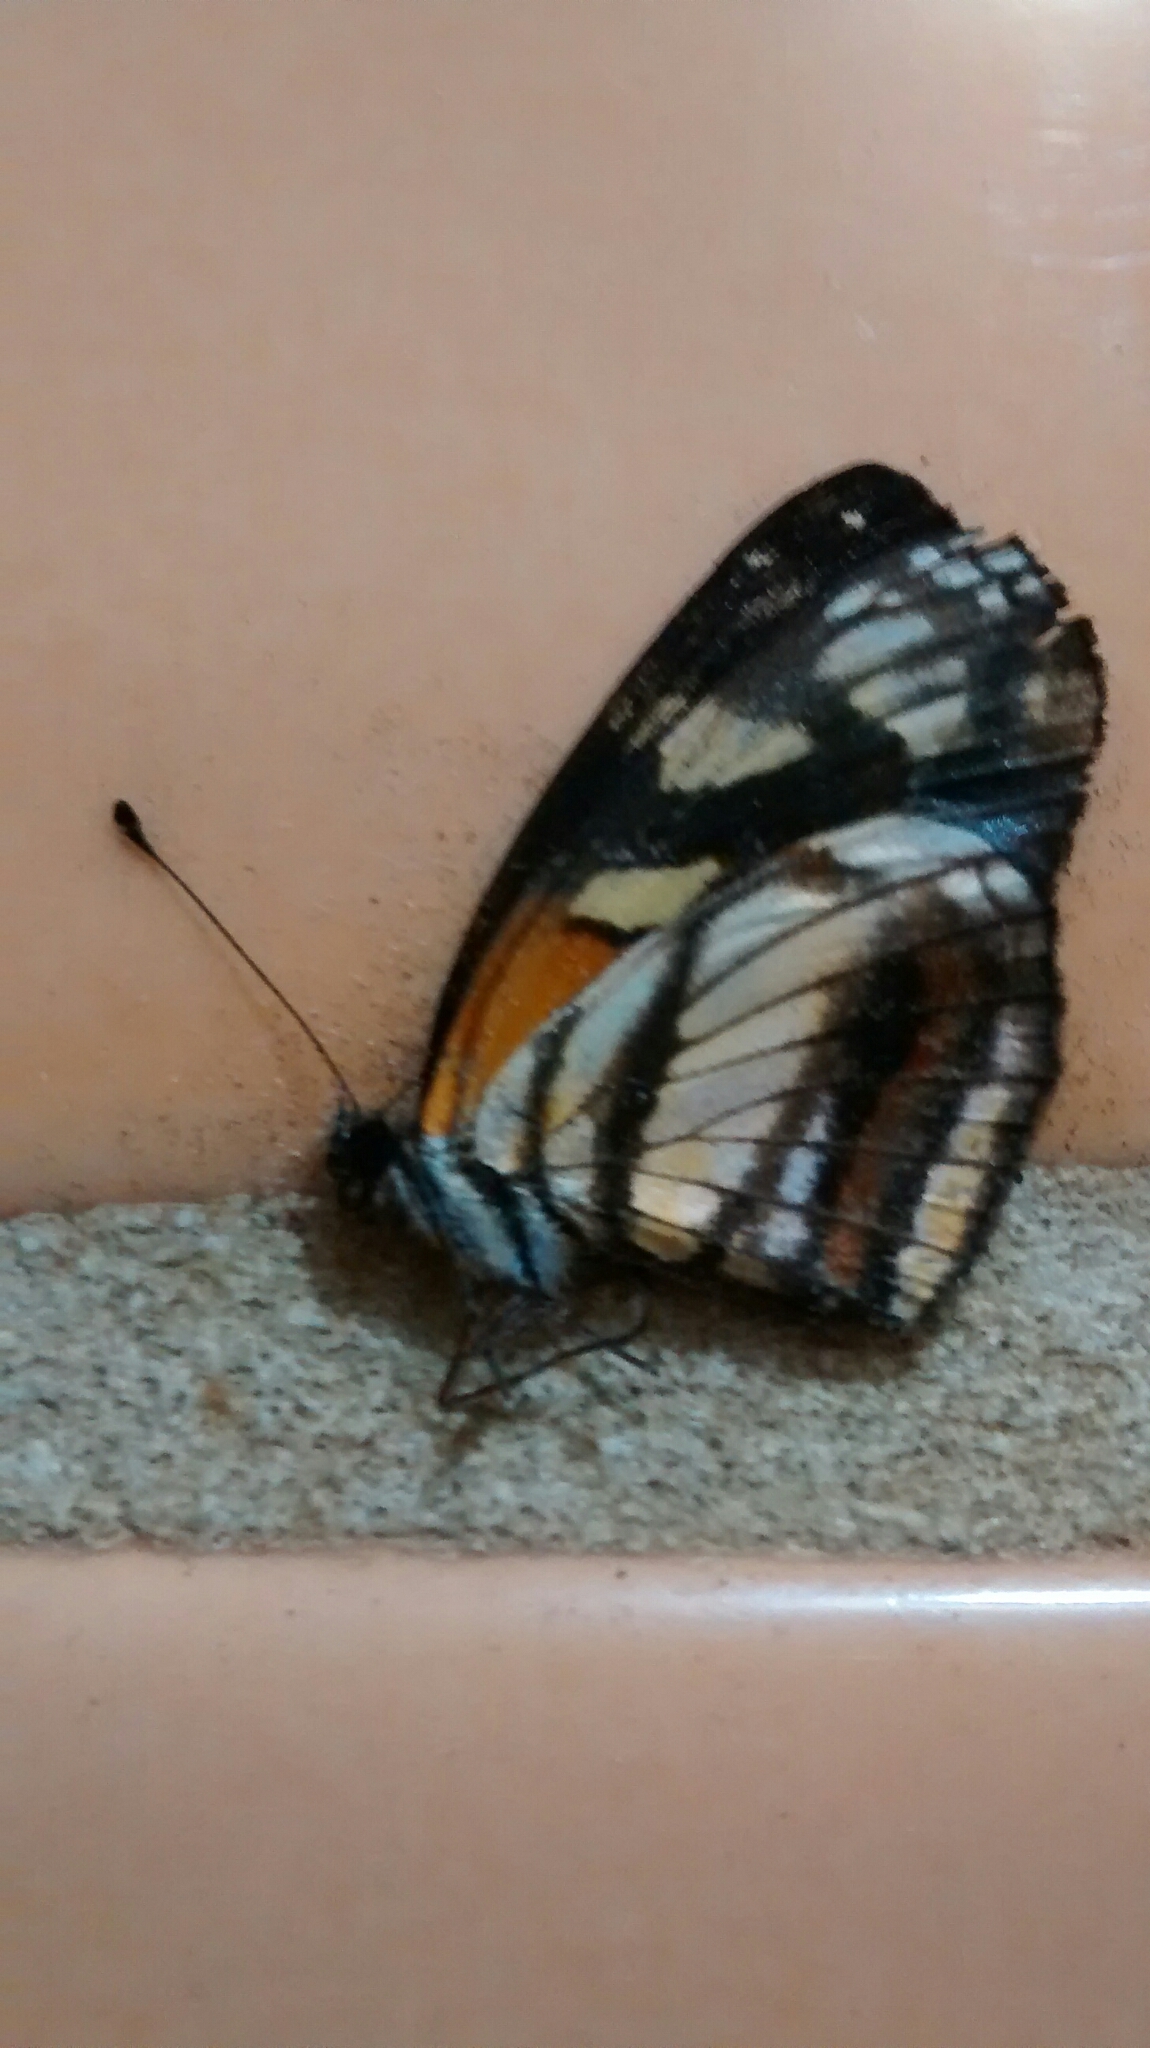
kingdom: Animalia
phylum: Arthropoda
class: Insecta
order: Lepidoptera
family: Nymphalidae
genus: Eresia
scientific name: Eresia polina
